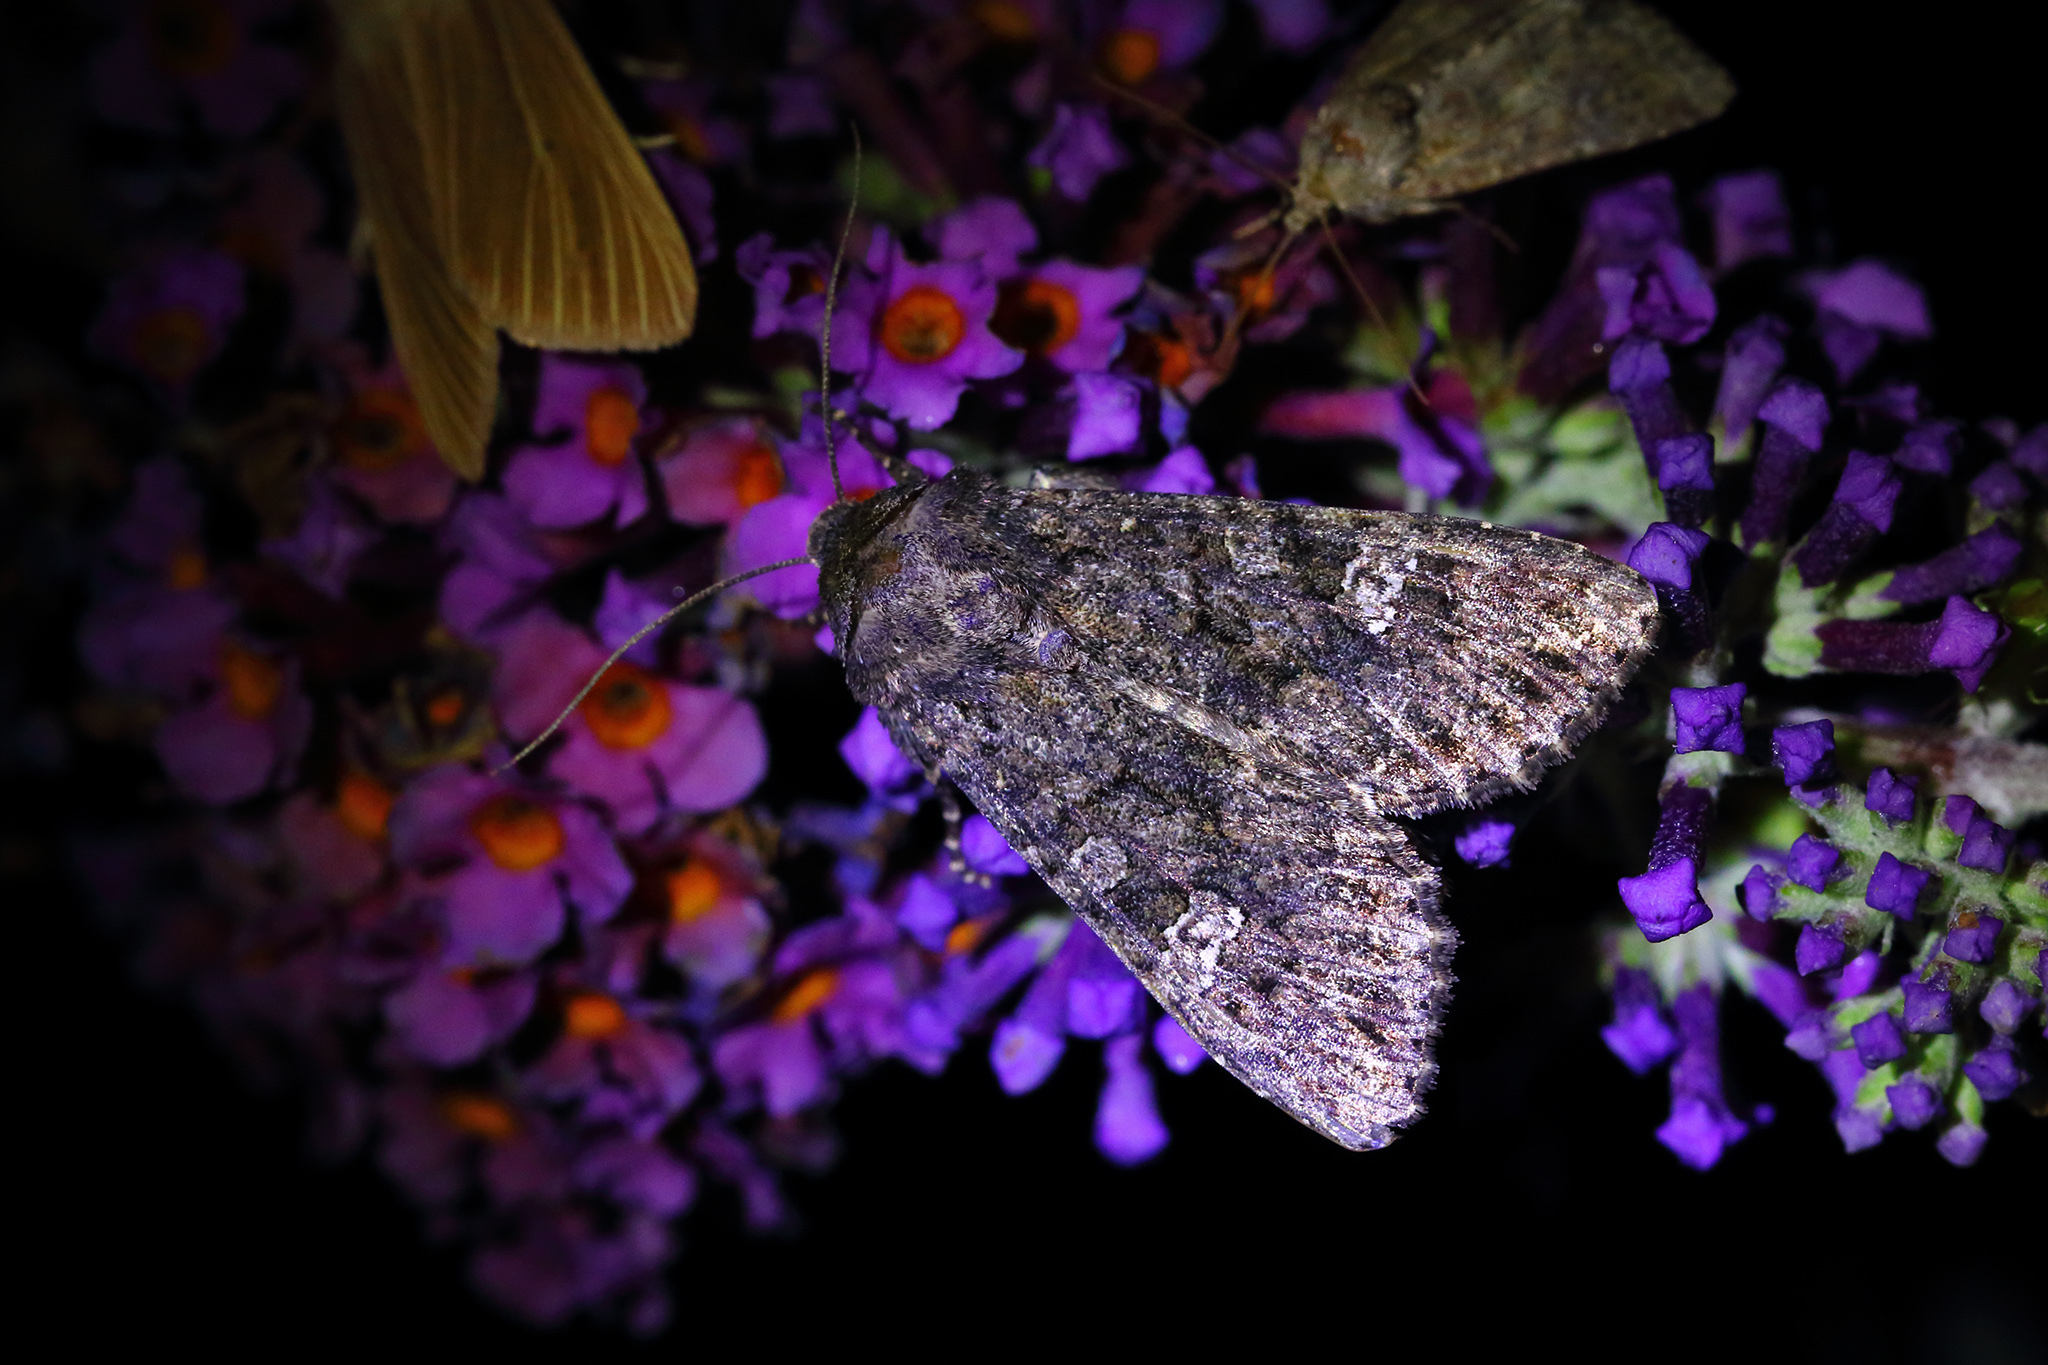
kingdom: Animalia
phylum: Arthropoda
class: Insecta
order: Lepidoptera
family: Noctuidae
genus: Mamestra
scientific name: Mamestra brassicae
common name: Cabbage moth
